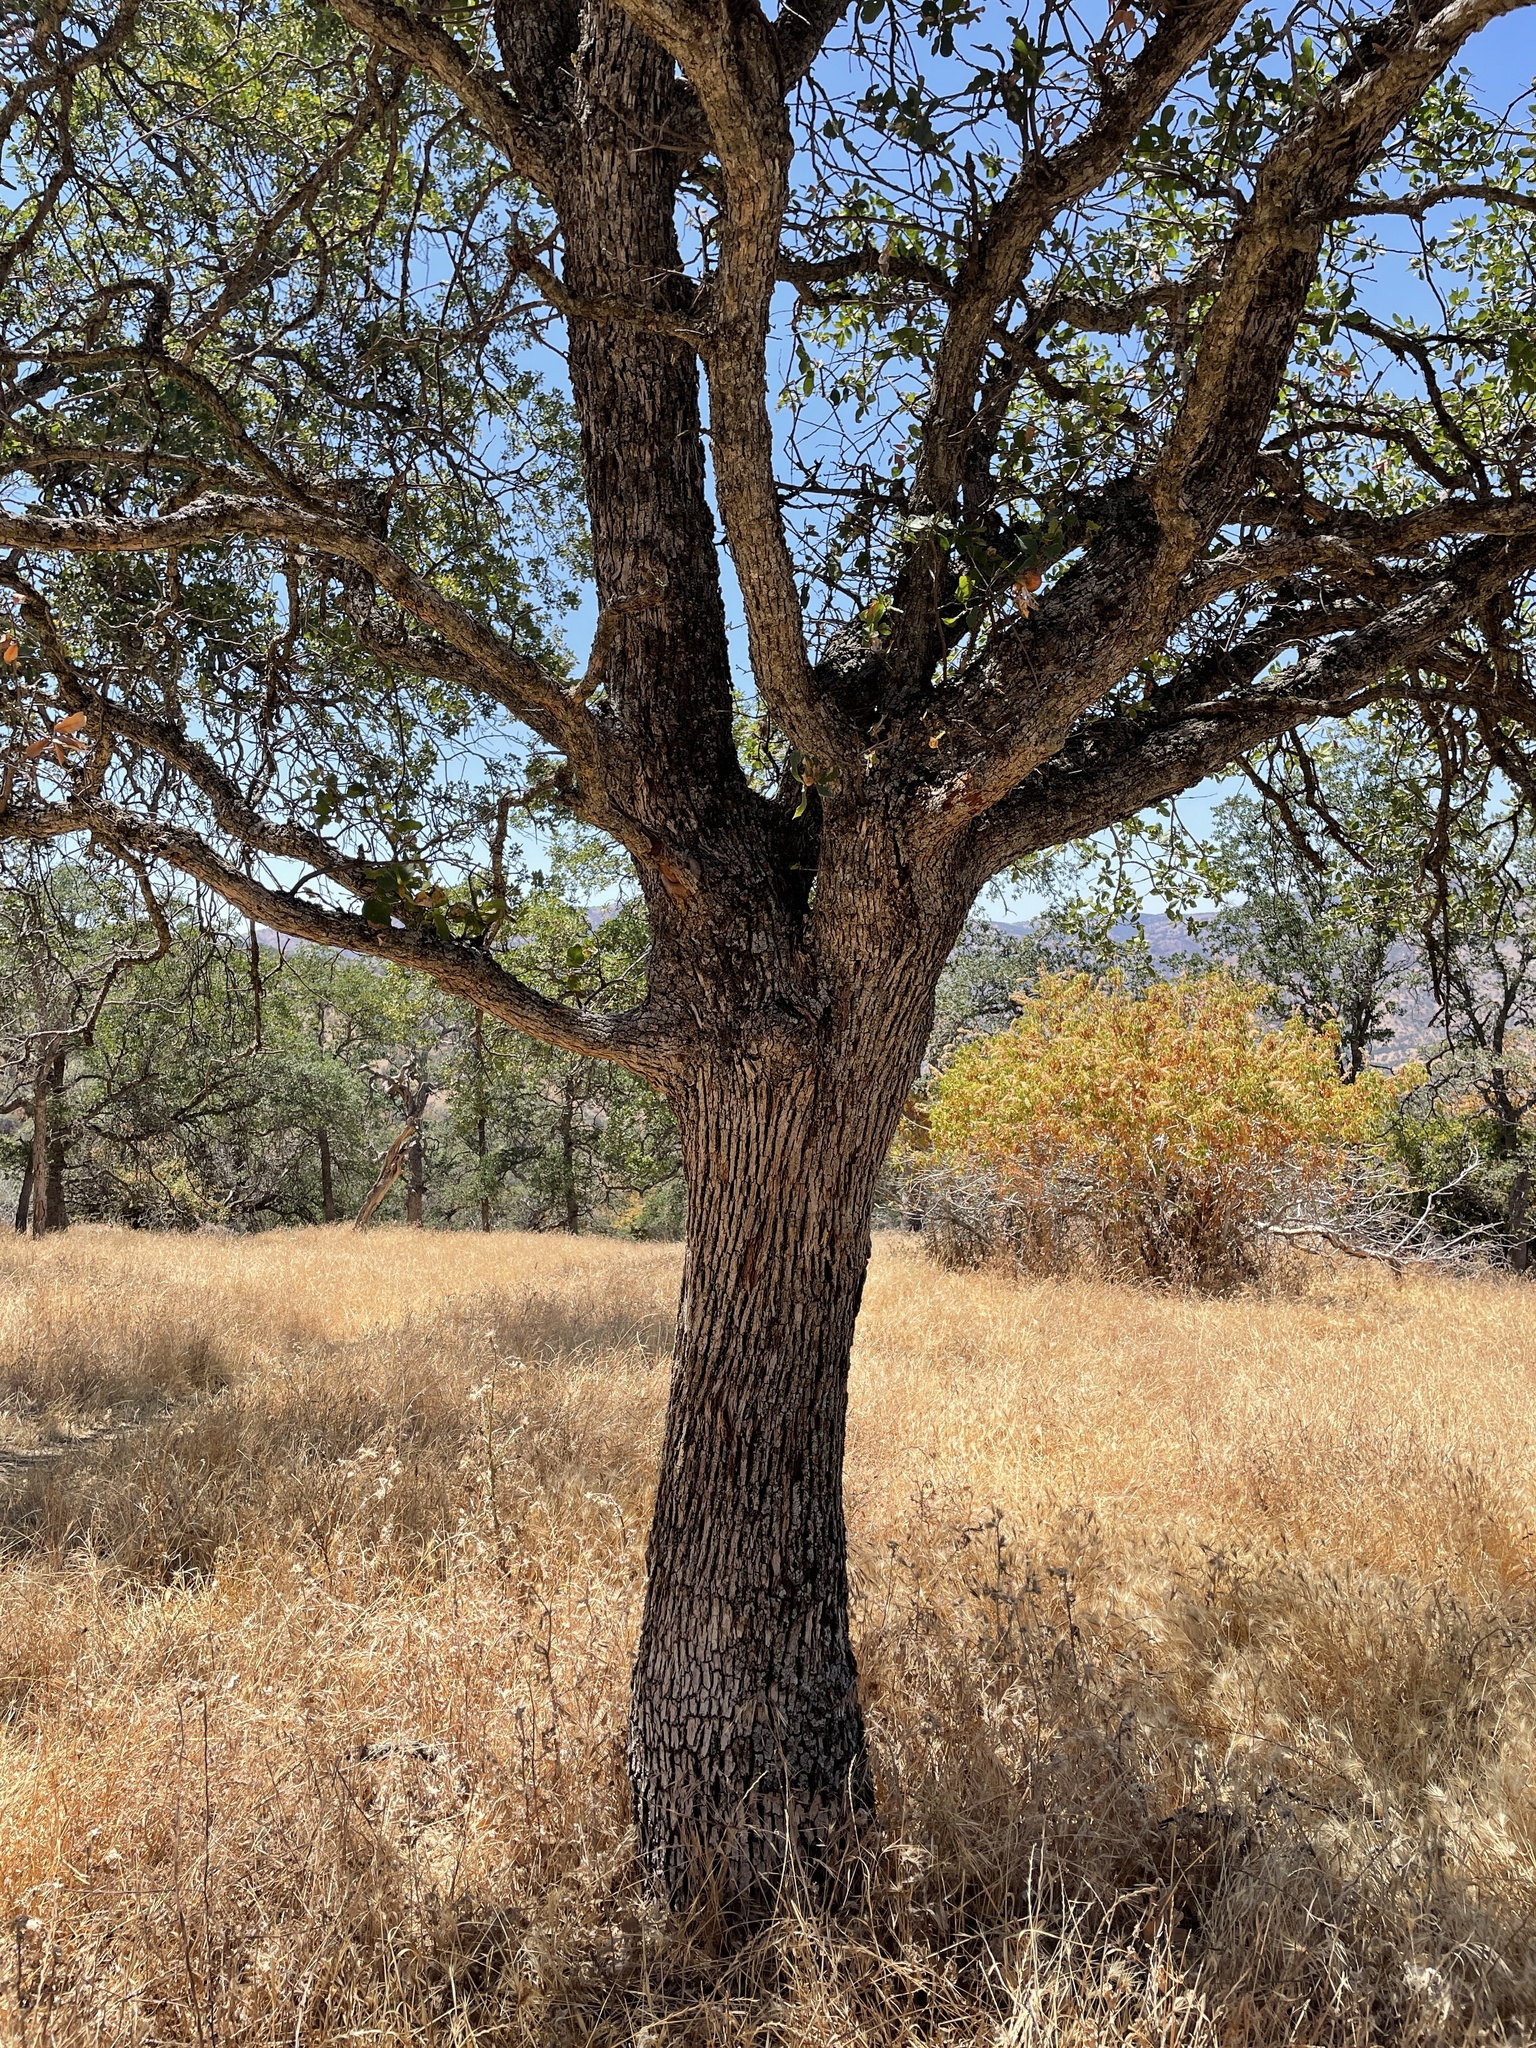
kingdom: Plantae
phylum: Tracheophyta
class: Magnoliopsida
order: Fagales
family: Fagaceae
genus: Quercus
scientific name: Quercus douglasii
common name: Blue oak
